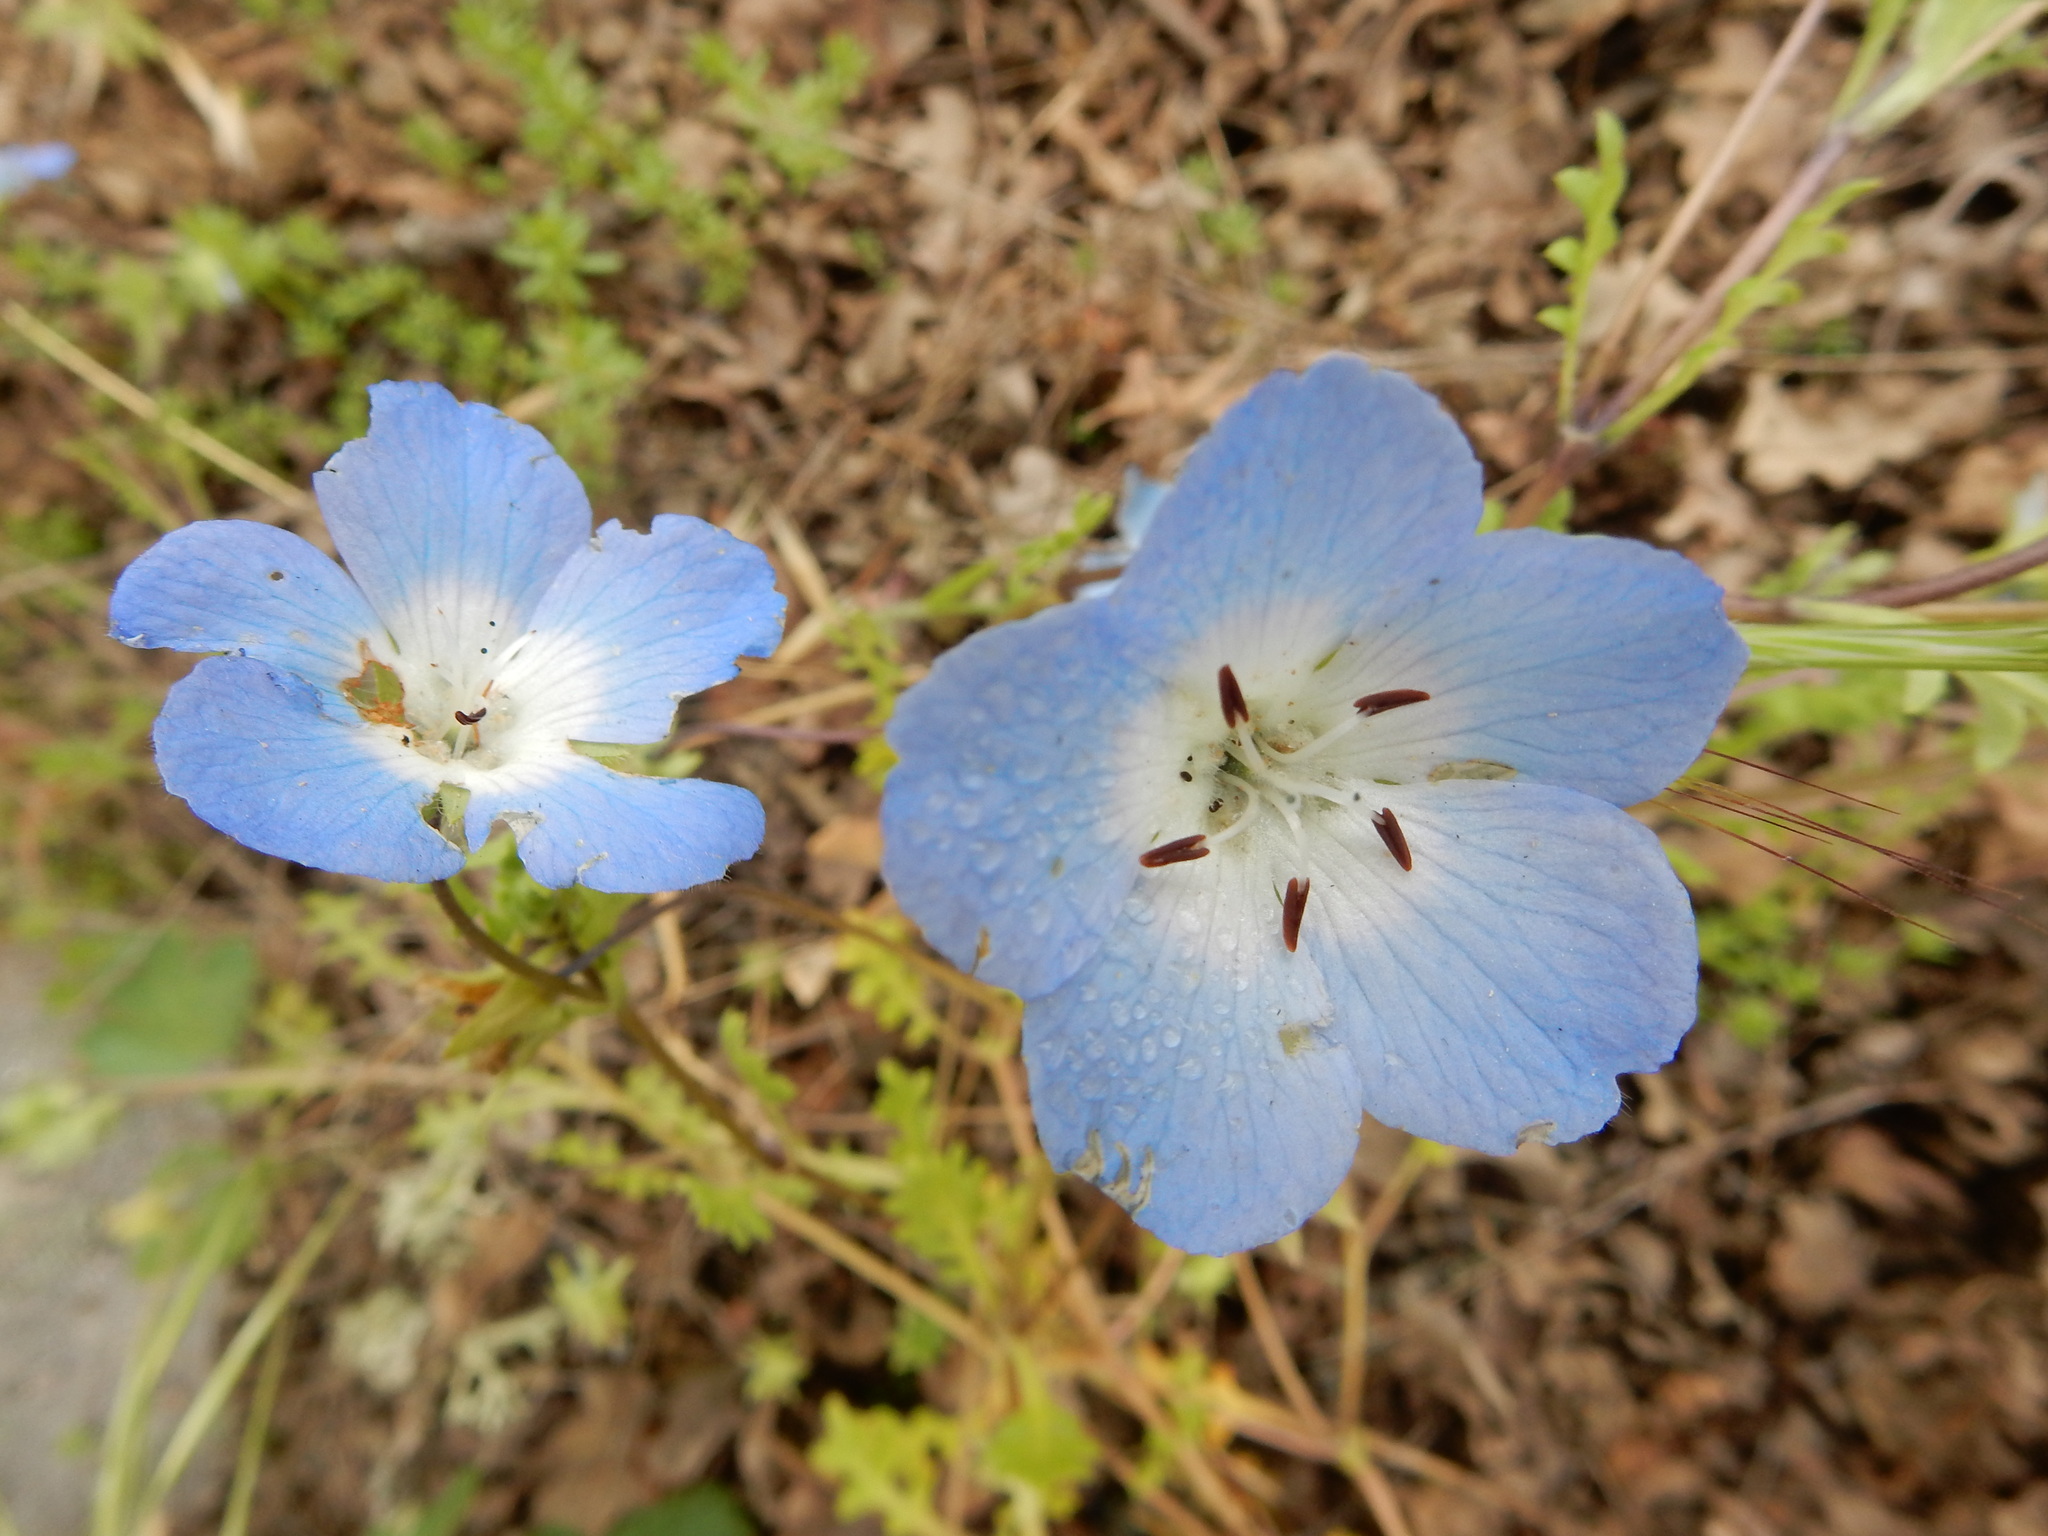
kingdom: Plantae
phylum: Tracheophyta
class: Magnoliopsida
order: Boraginales
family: Hydrophyllaceae
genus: Nemophila
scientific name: Nemophila menziesii
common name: Baby's-blue-eyes
